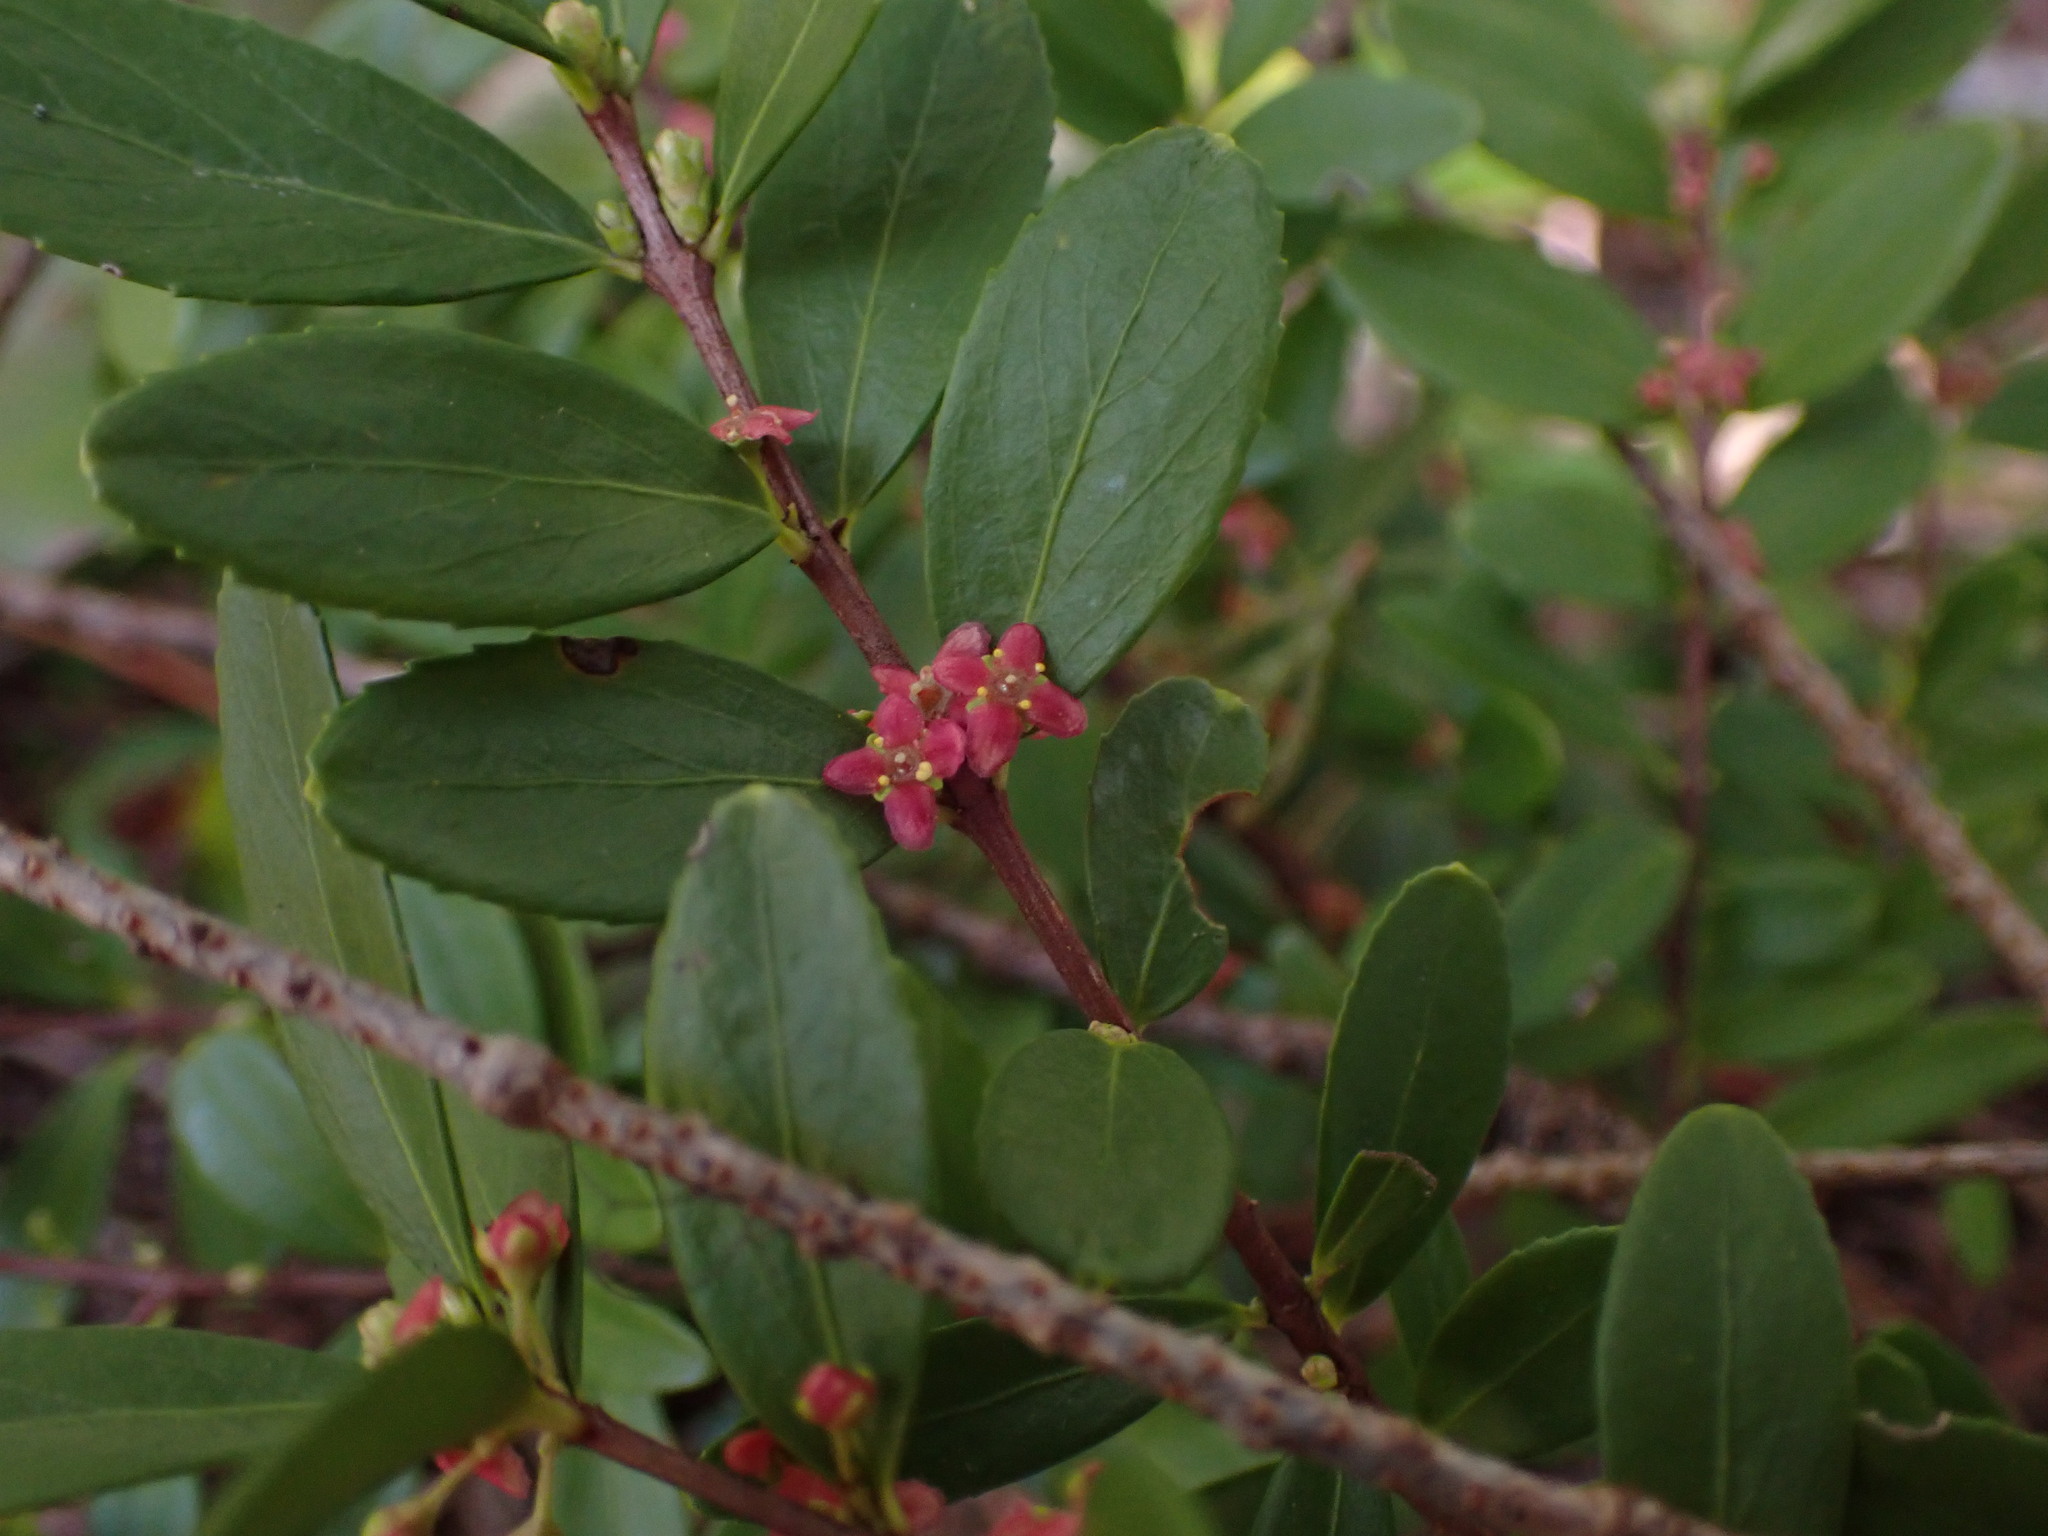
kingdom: Plantae
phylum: Tracheophyta
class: Magnoliopsida
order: Celastrales
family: Celastraceae
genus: Paxistima
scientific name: Paxistima myrsinites
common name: Mountain-lover
